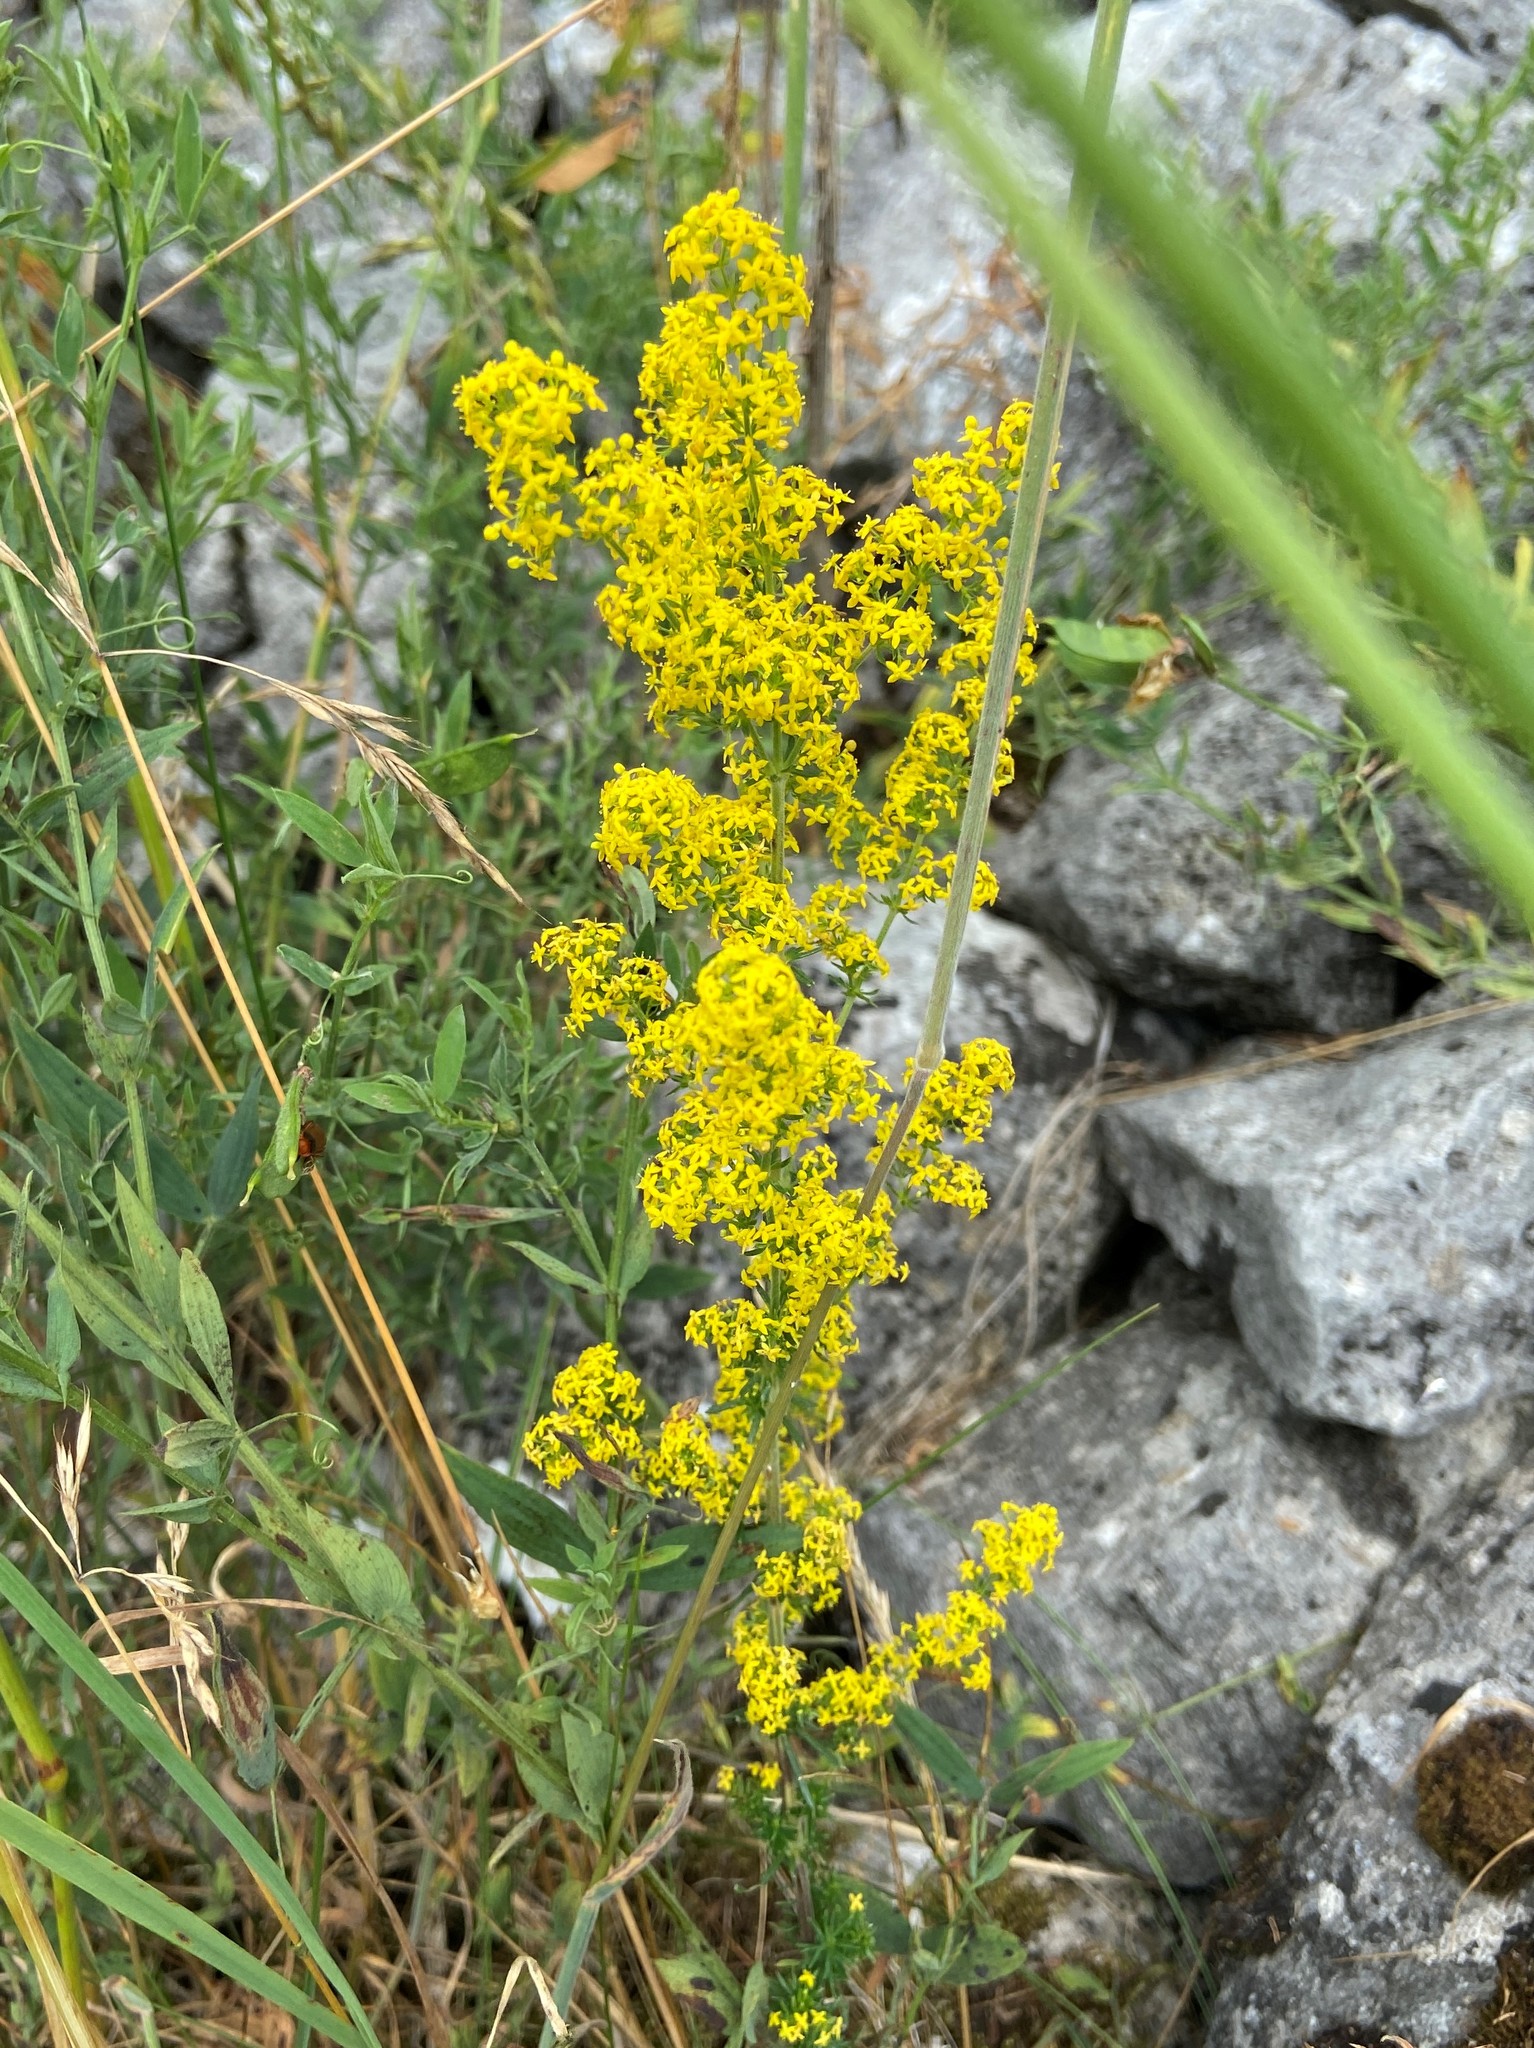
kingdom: Plantae
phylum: Tracheophyta
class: Magnoliopsida
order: Gentianales
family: Rubiaceae
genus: Galium
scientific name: Galium verum
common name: Lady's bedstraw
